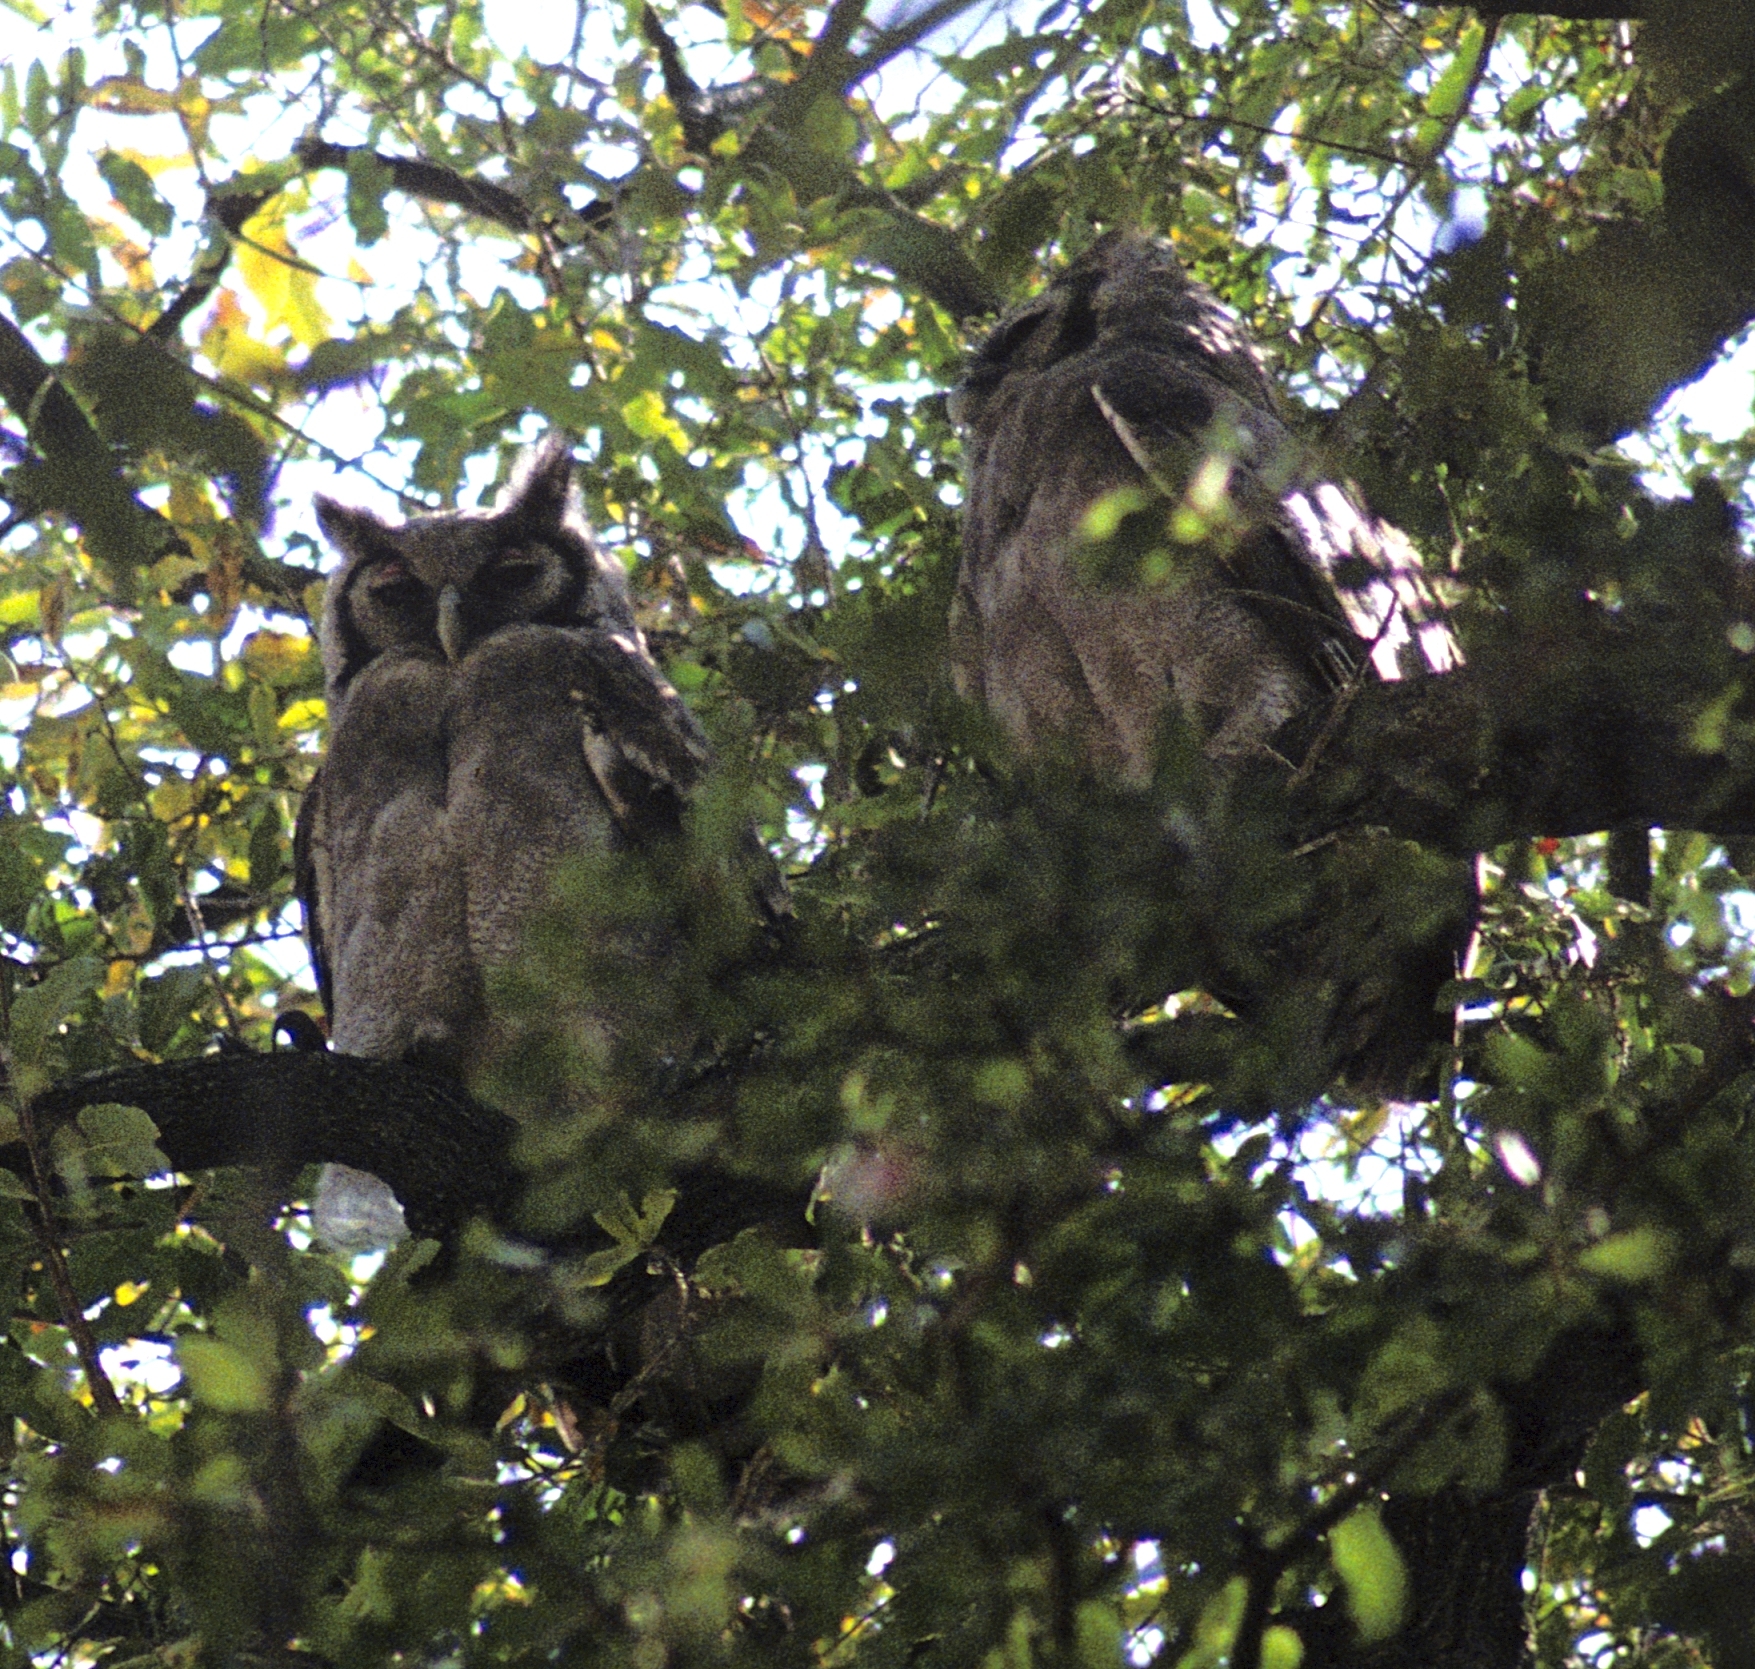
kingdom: Animalia
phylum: Chordata
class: Aves
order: Strigiformes
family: Strigidae
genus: Bubo
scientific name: Bubo lacteus
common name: Verreaux's eagle-owl
